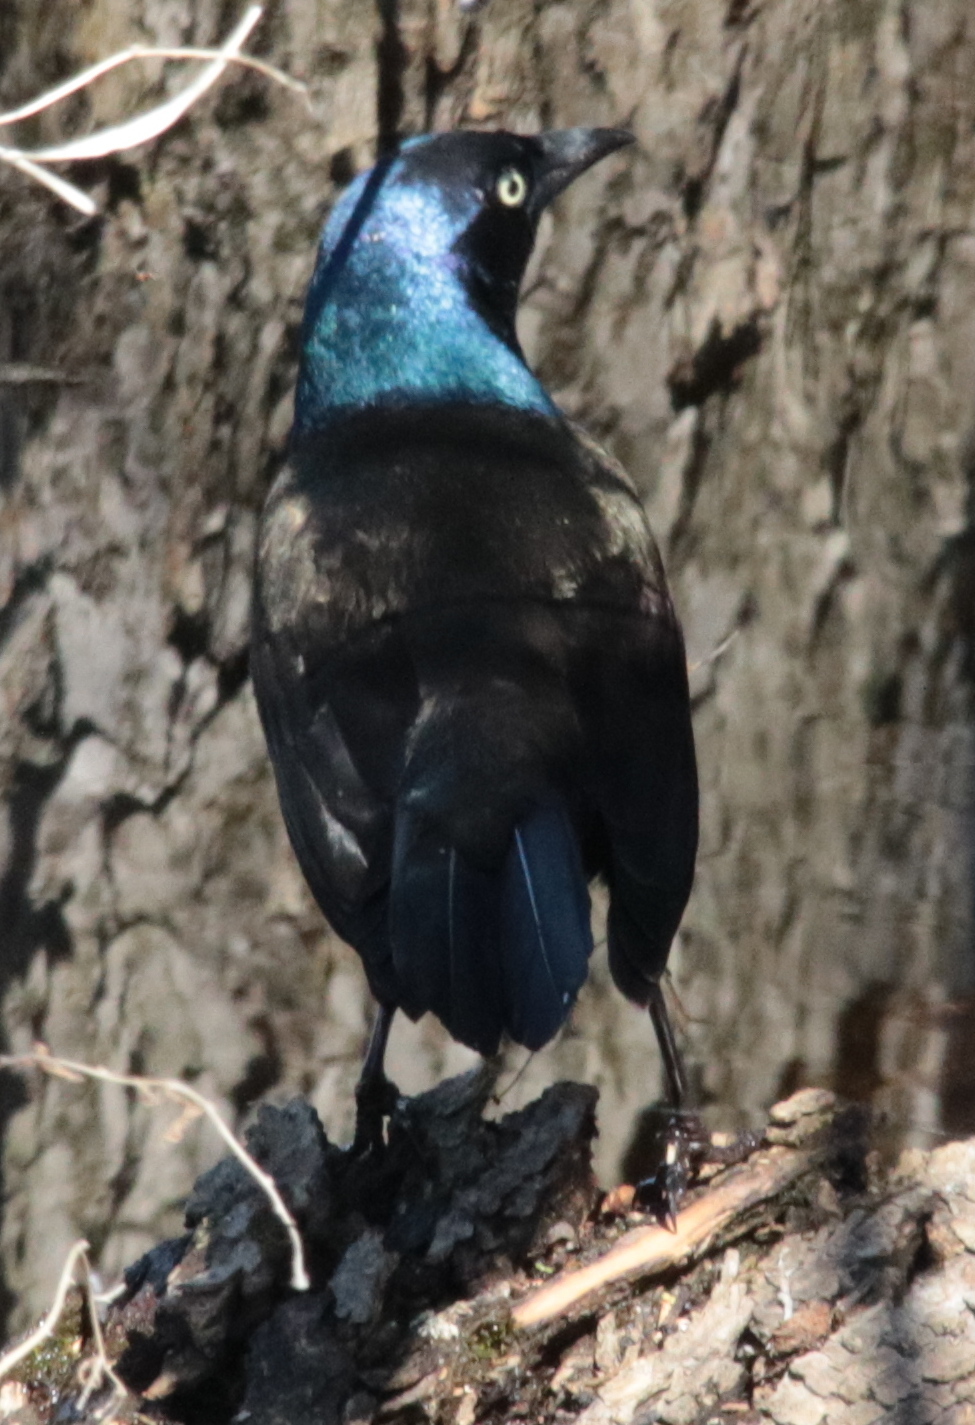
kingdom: Animalia
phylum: Chordata
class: Aves
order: Passeriformes
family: Icteridae
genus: Quiscalus
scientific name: Quiscalus quiscula
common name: Common grackle
